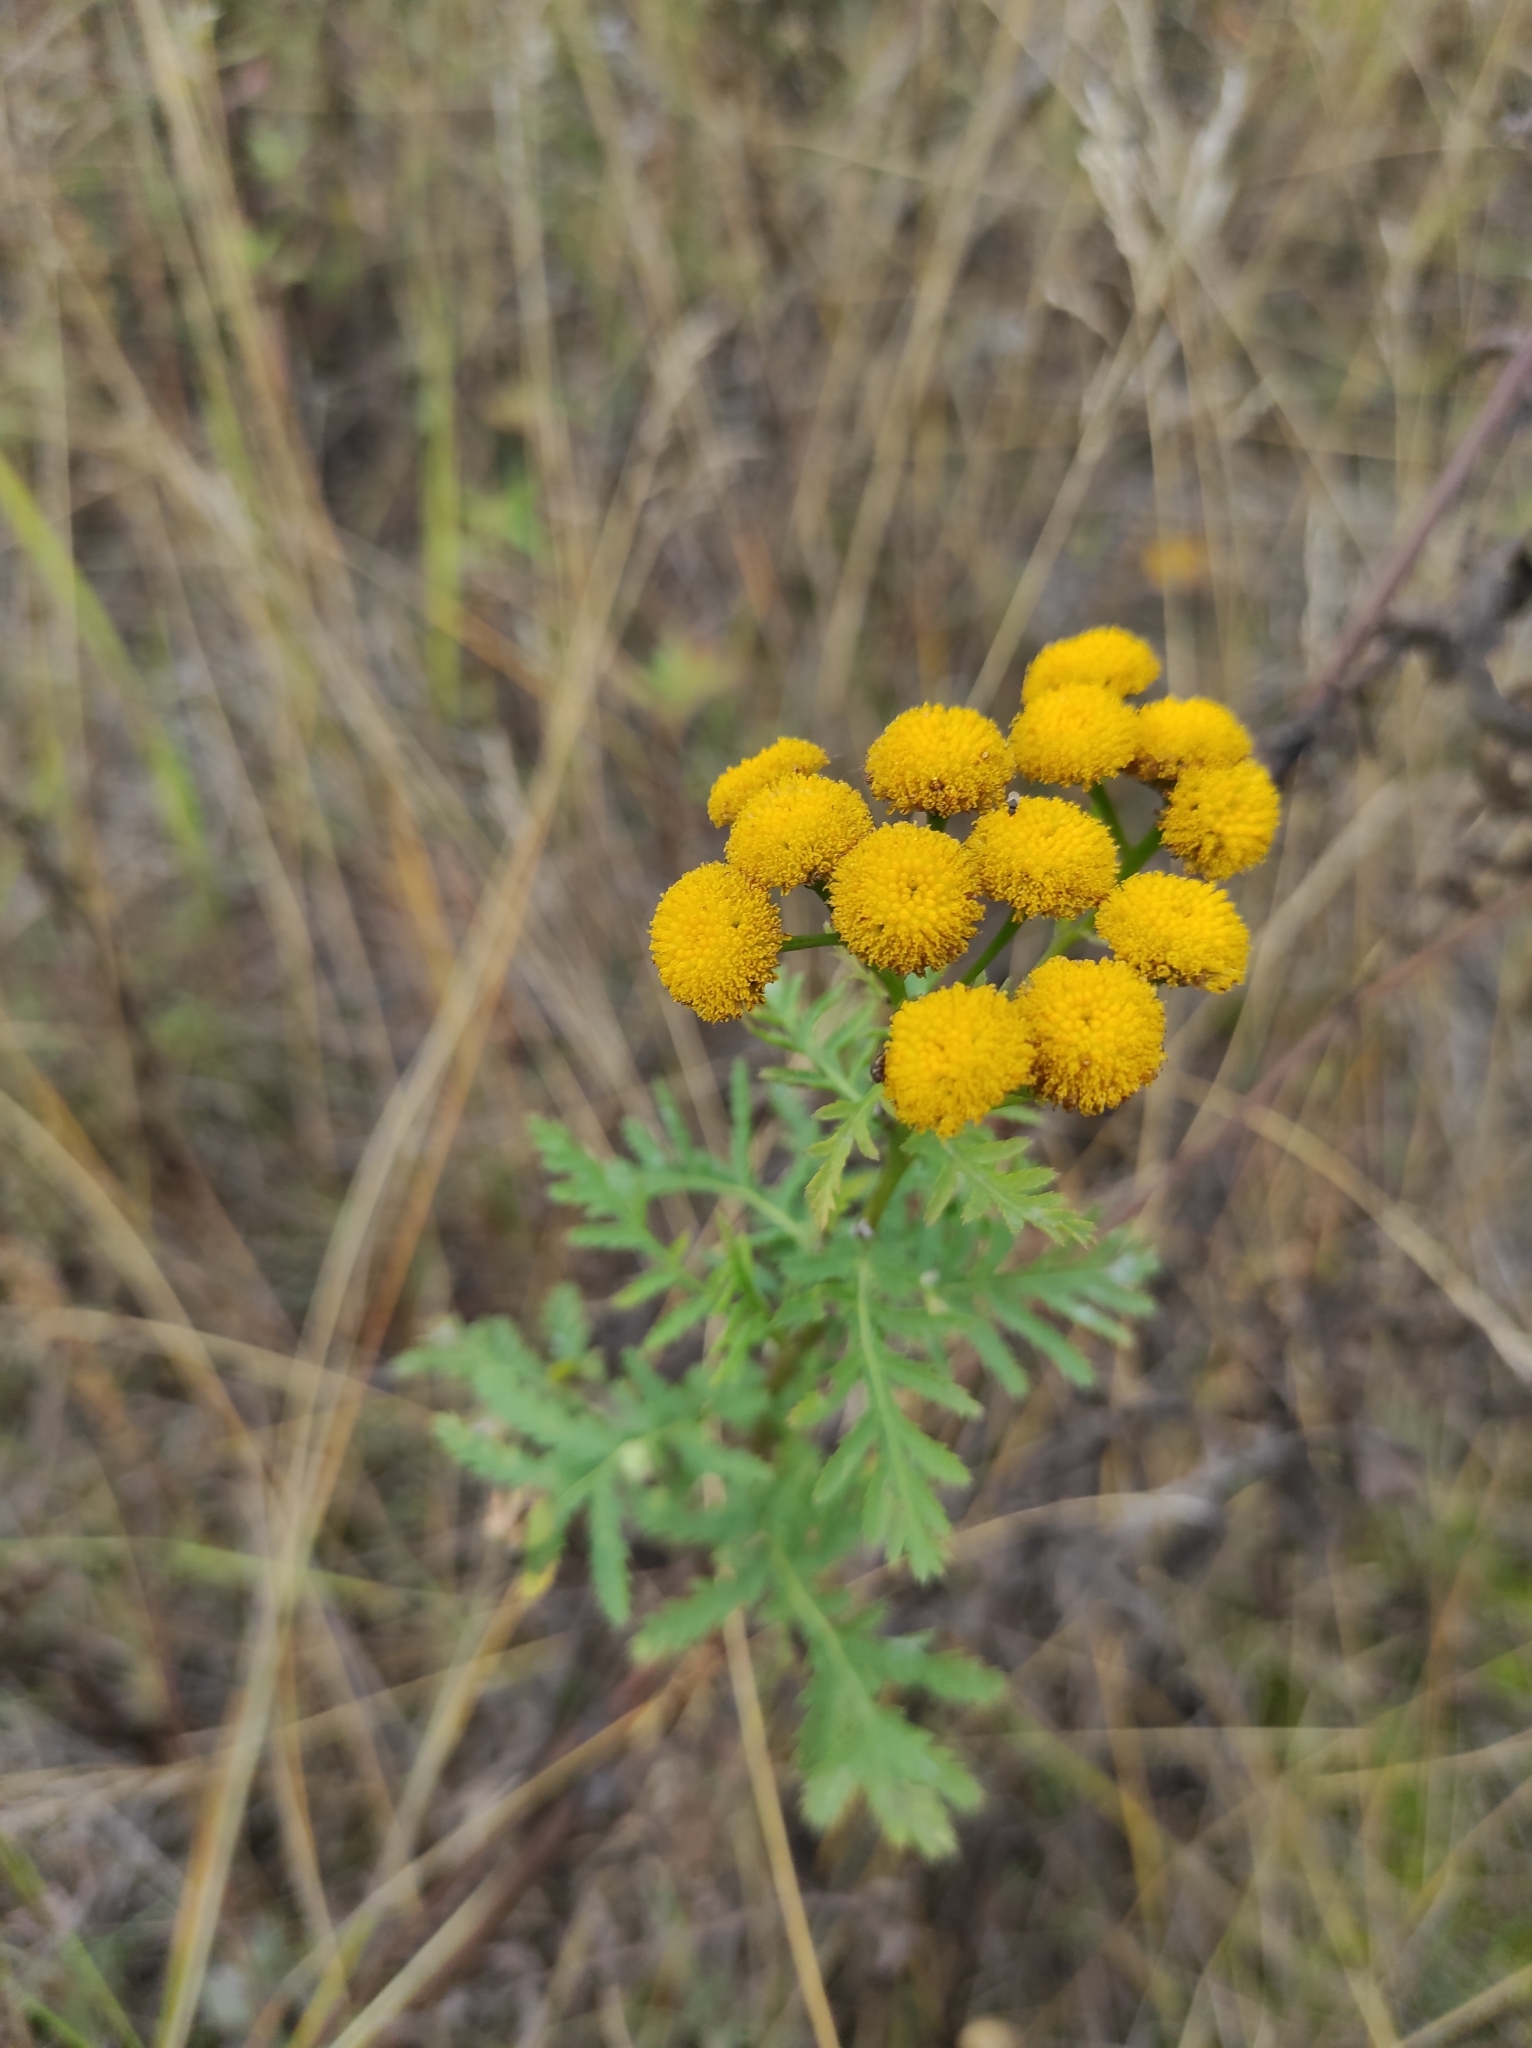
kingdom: Plantae
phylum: Tracheophyta
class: Magnoliopsida
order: Asterales
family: Asteraceae
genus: Tanacetum
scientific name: Tanacetum vulgare
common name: Common tansy
